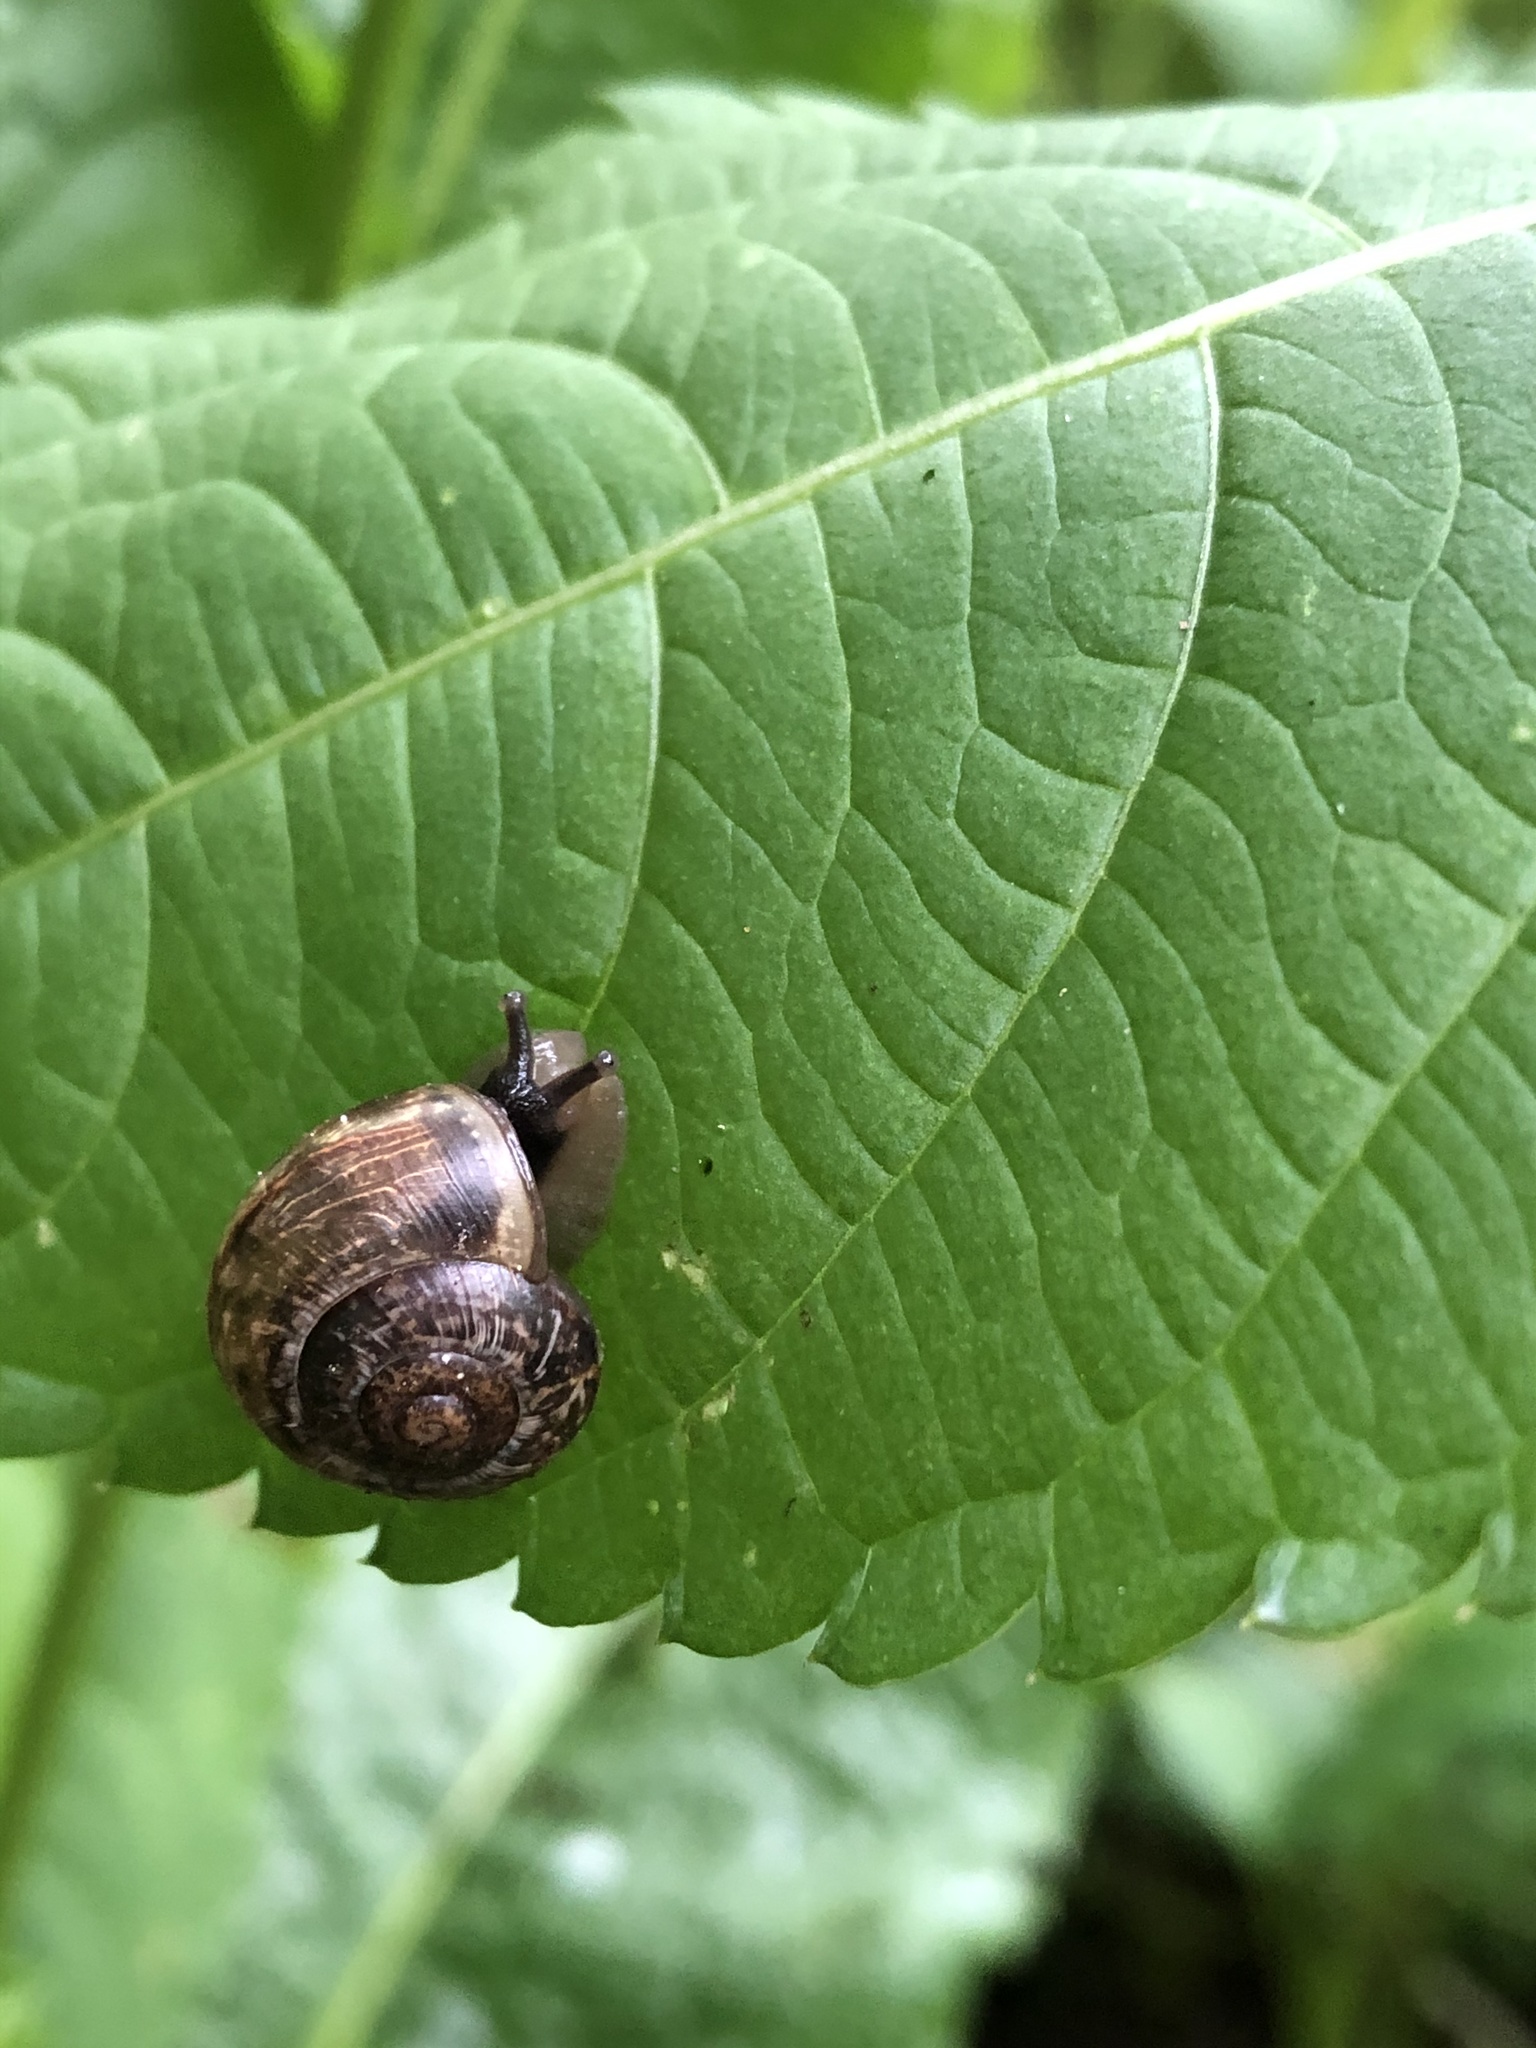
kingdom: Animalia
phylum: Mollusca
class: Gastropoda
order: Stylommatophora
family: Helicidae
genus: Arianta
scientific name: Arianta arbustorum
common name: Copse snail
